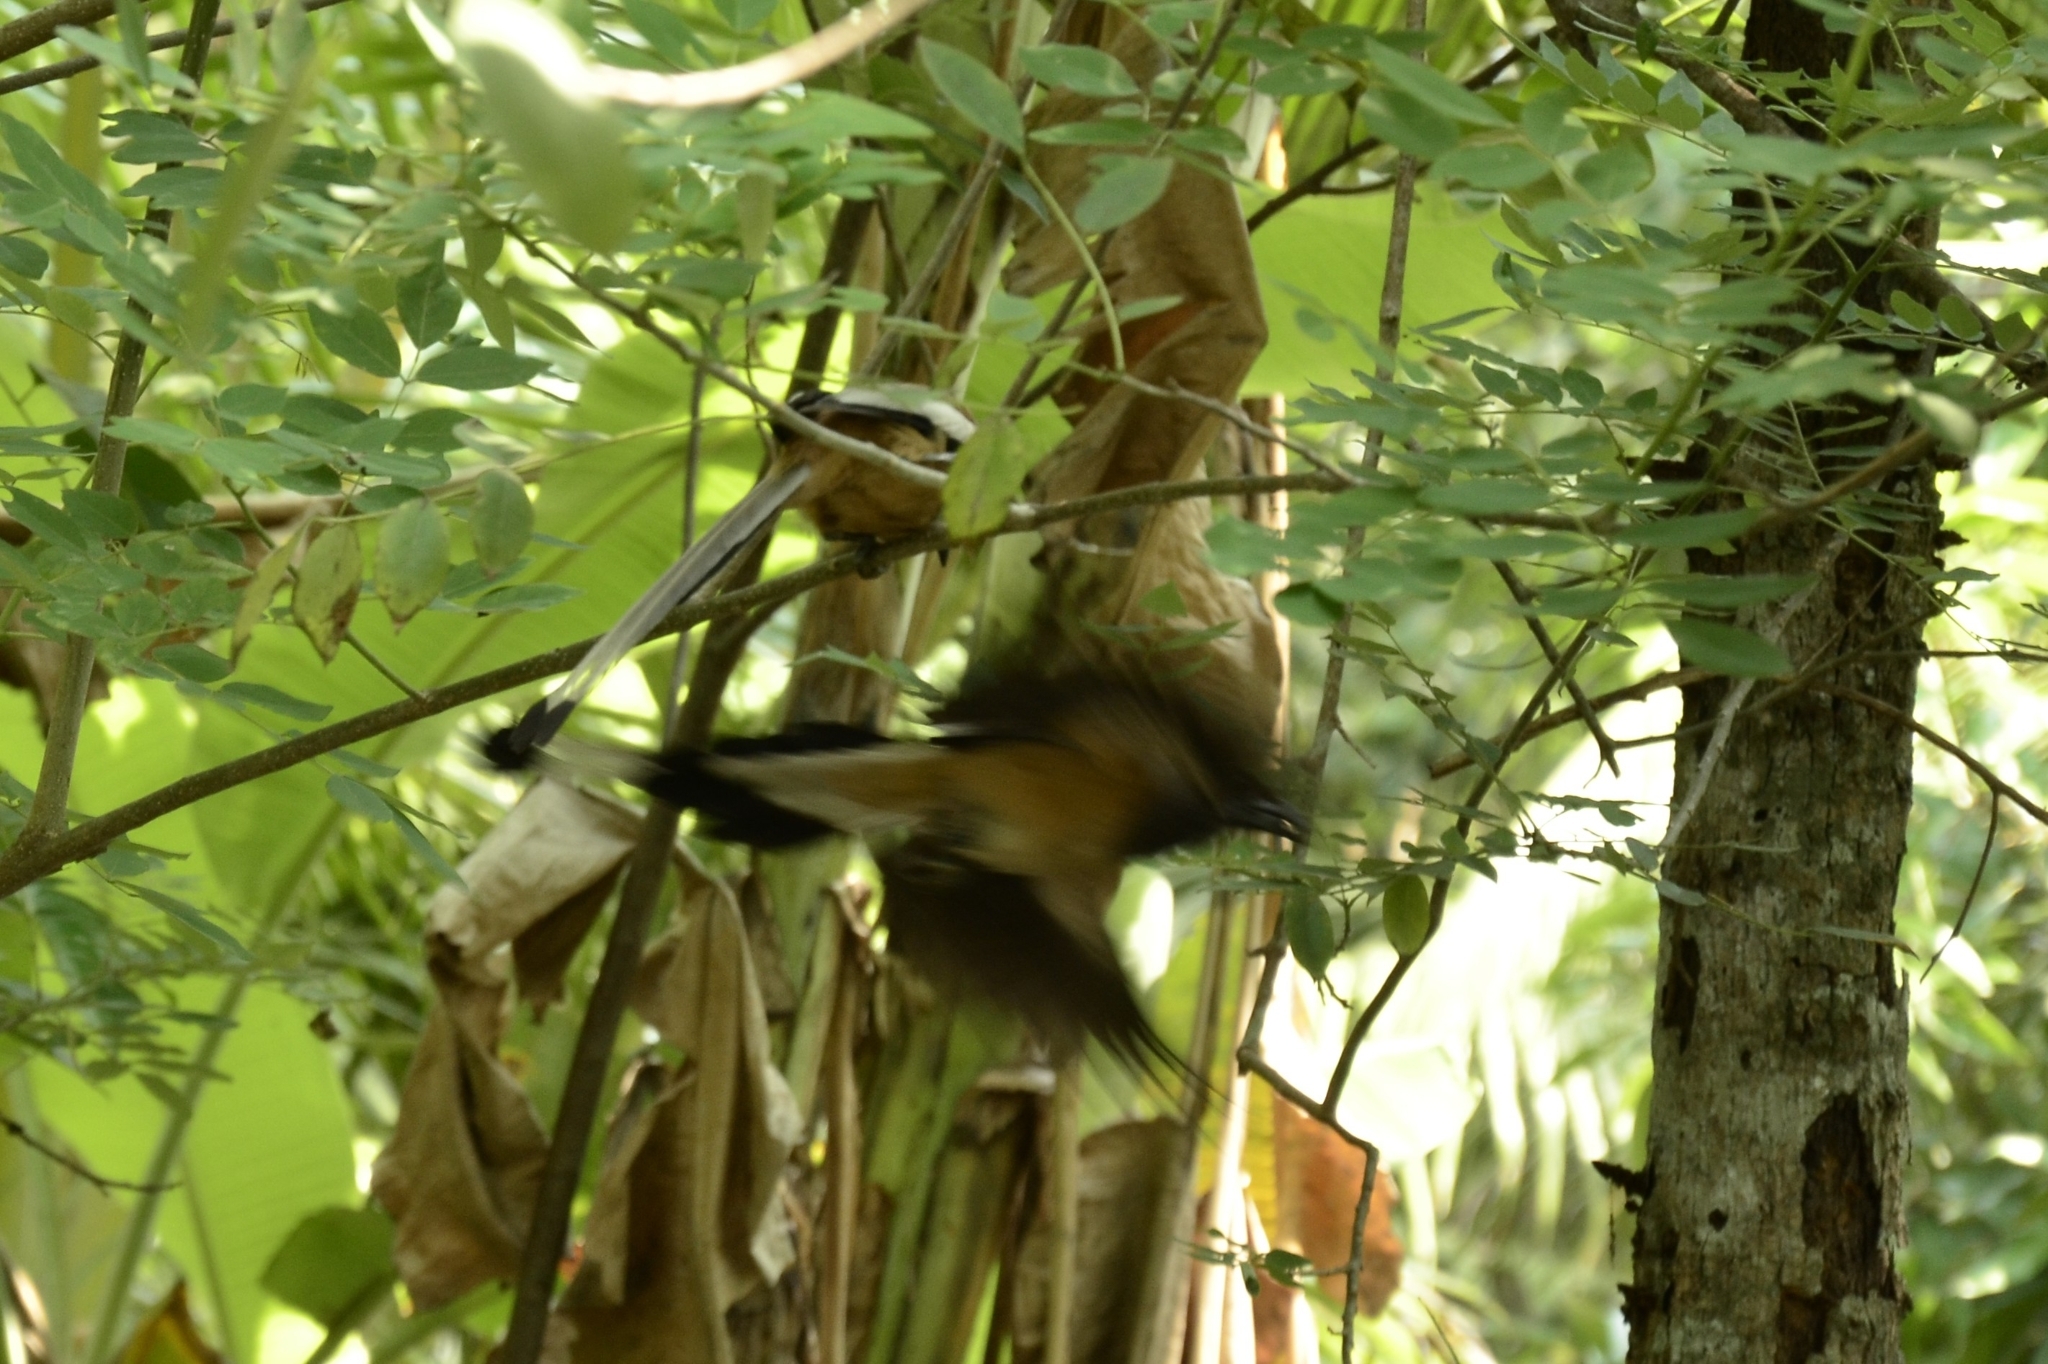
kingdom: Animalia
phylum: Chordata
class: Aves
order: Passeriformes
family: Corvidae
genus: Dendrocitta
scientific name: Dendrocitta vagabunda
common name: Rufous treepie
